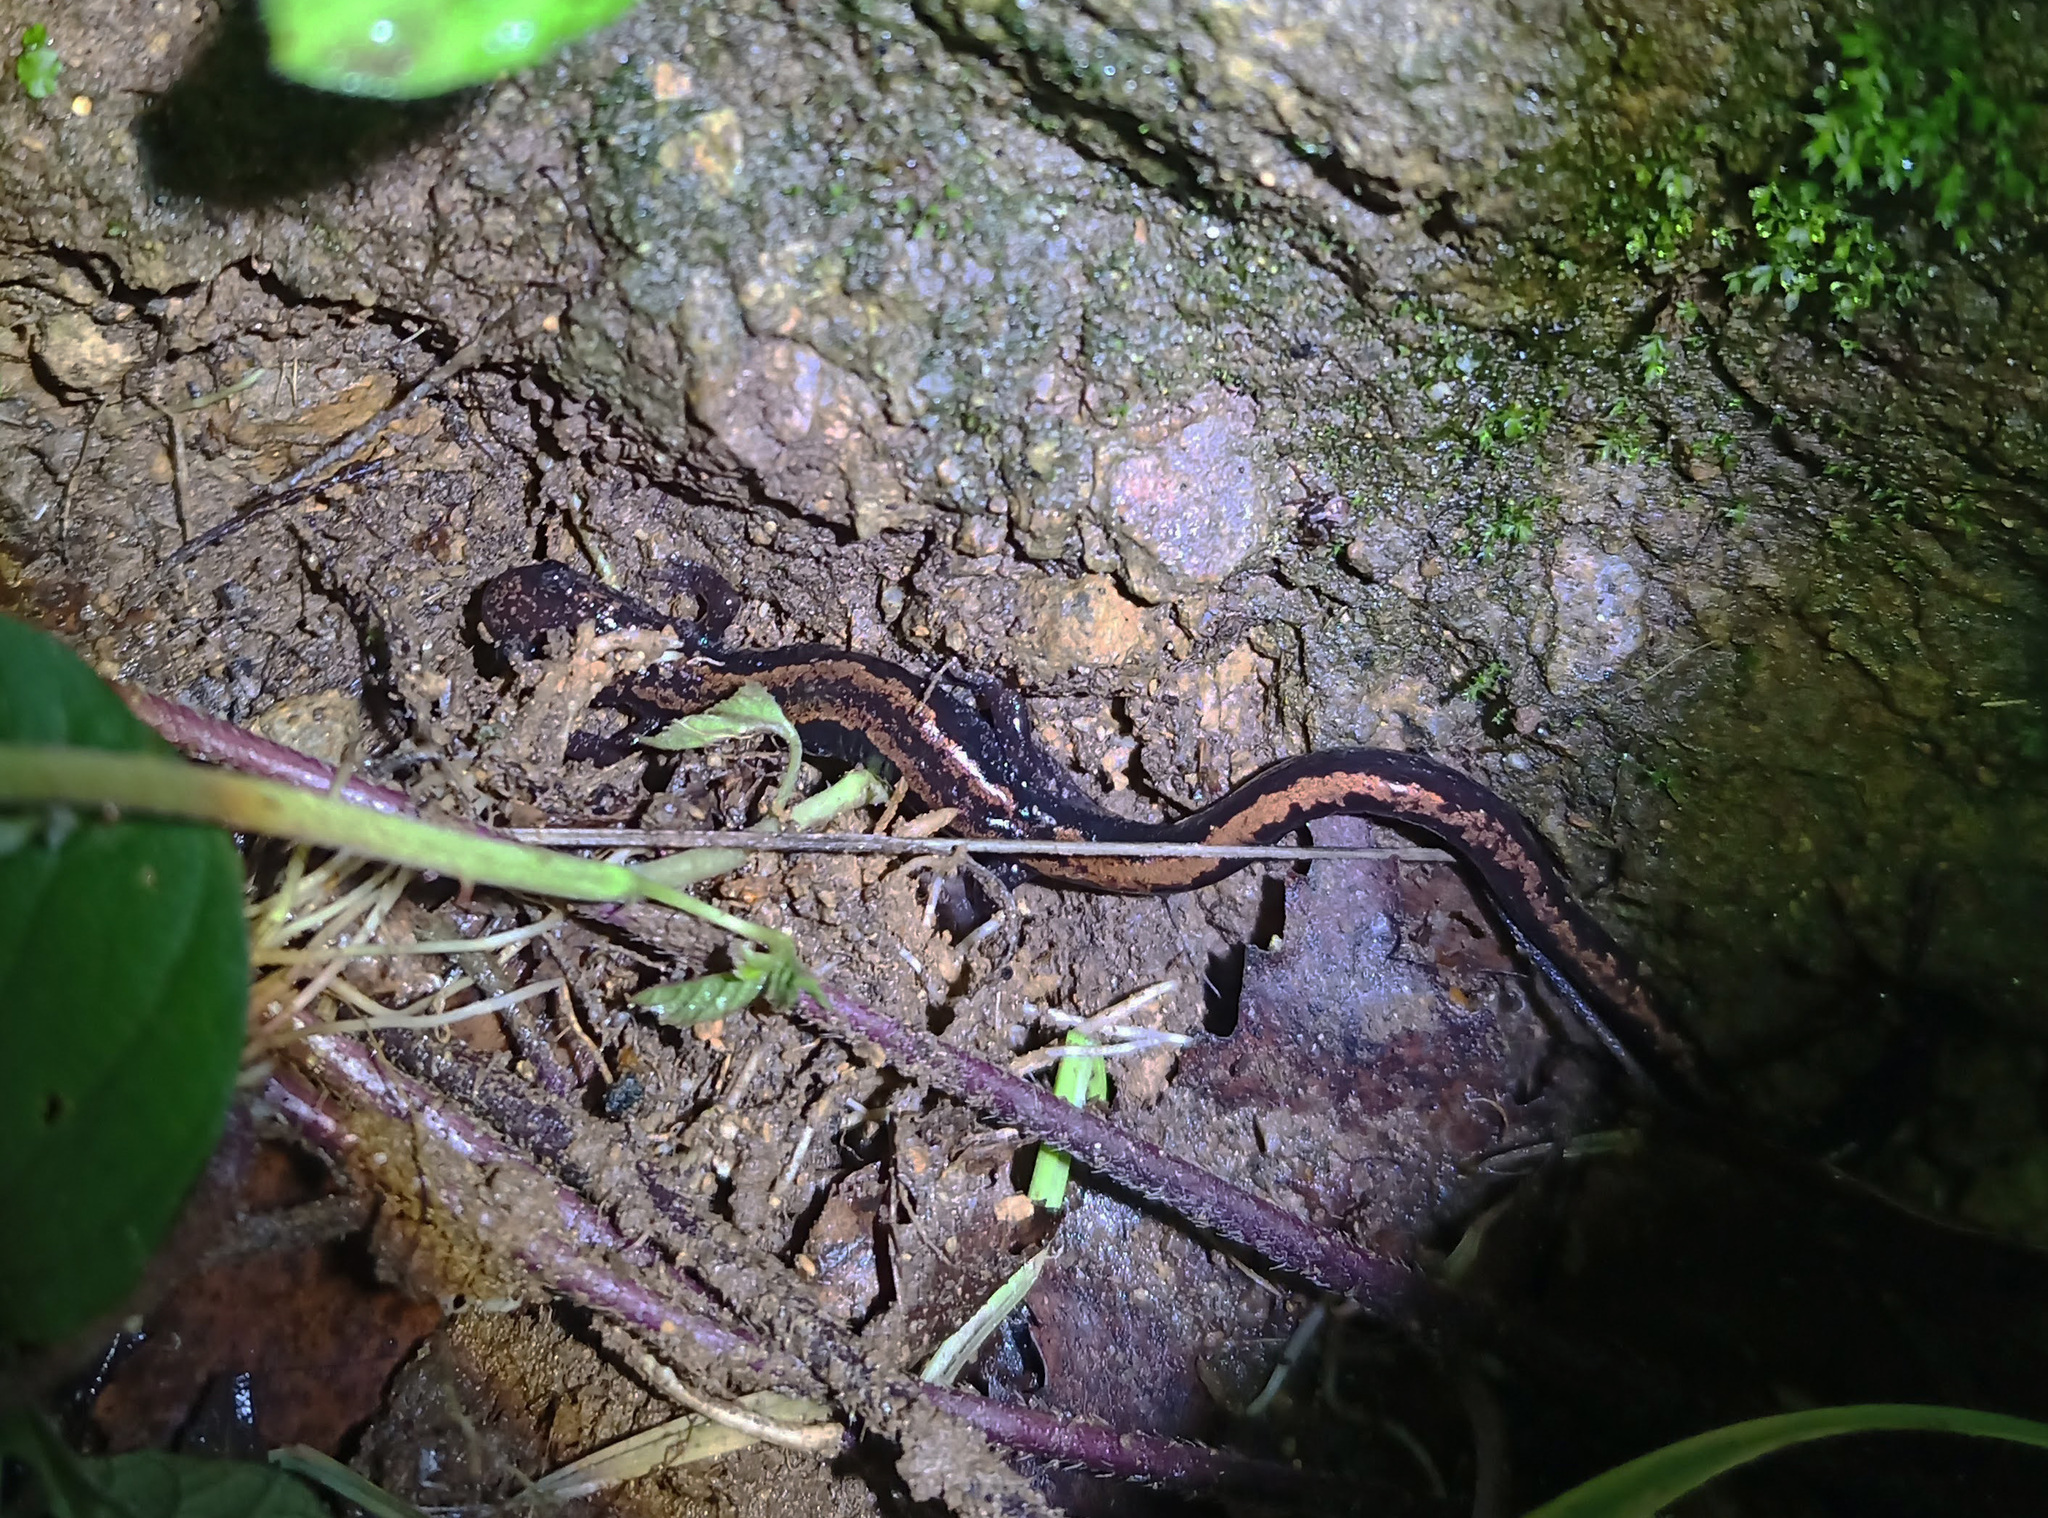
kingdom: Animalia
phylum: Chordata
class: Amphibia
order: Caudata
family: Salamandridae
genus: Chioglossa
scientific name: Chioglossa lusitanica
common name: Gold-striped salamander
